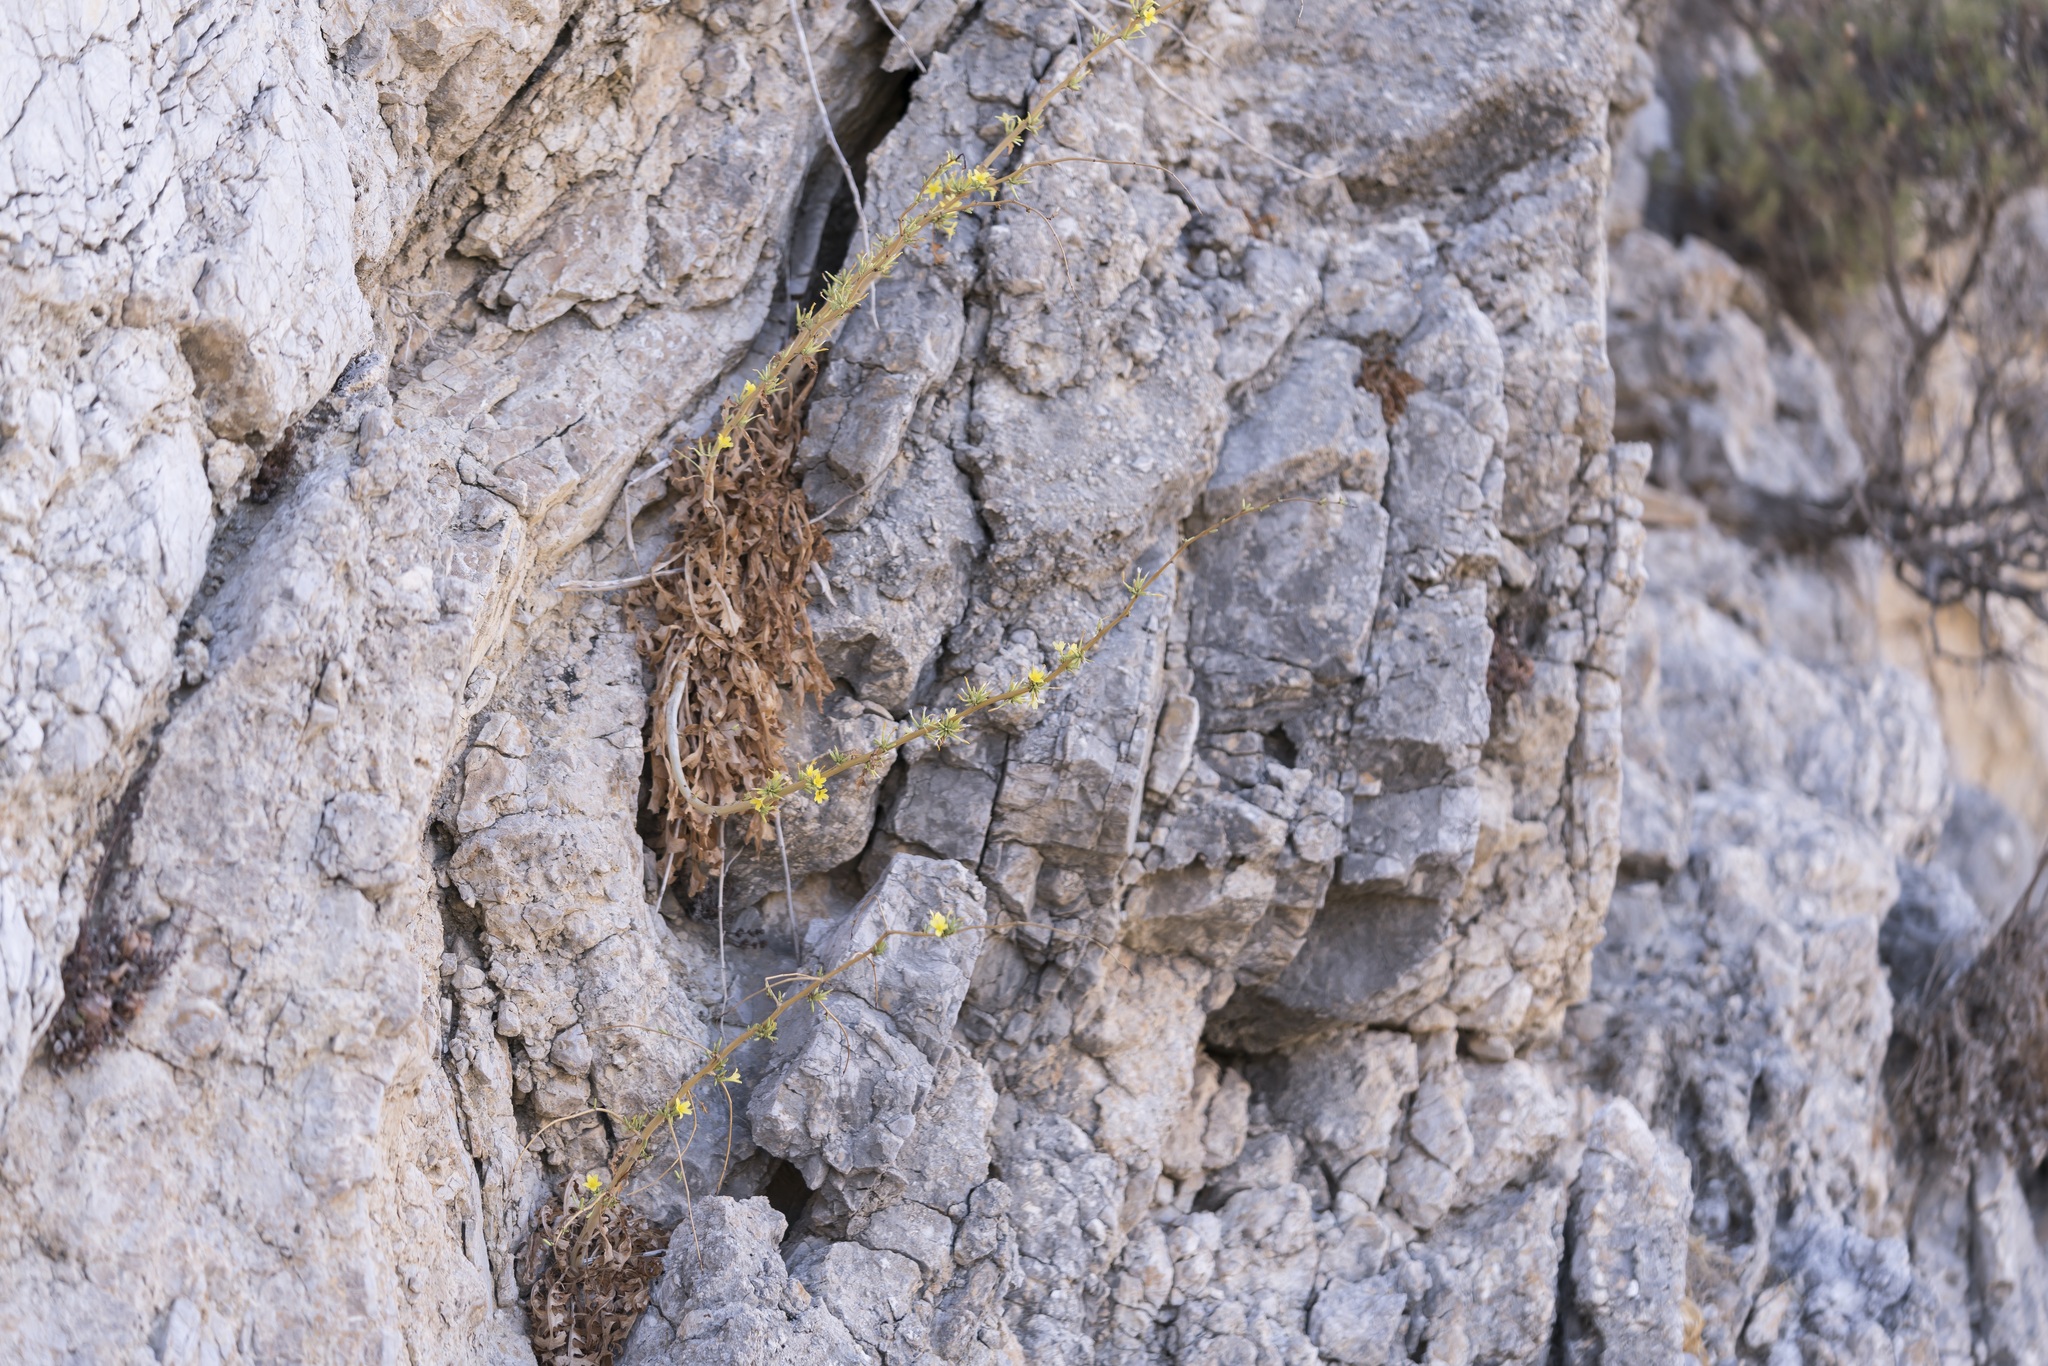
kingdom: Plantae
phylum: Tracheophyta
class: Magnoliopsida
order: Asterales
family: Asteraceae
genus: Lactuca
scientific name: Lactuca acanthifolia
